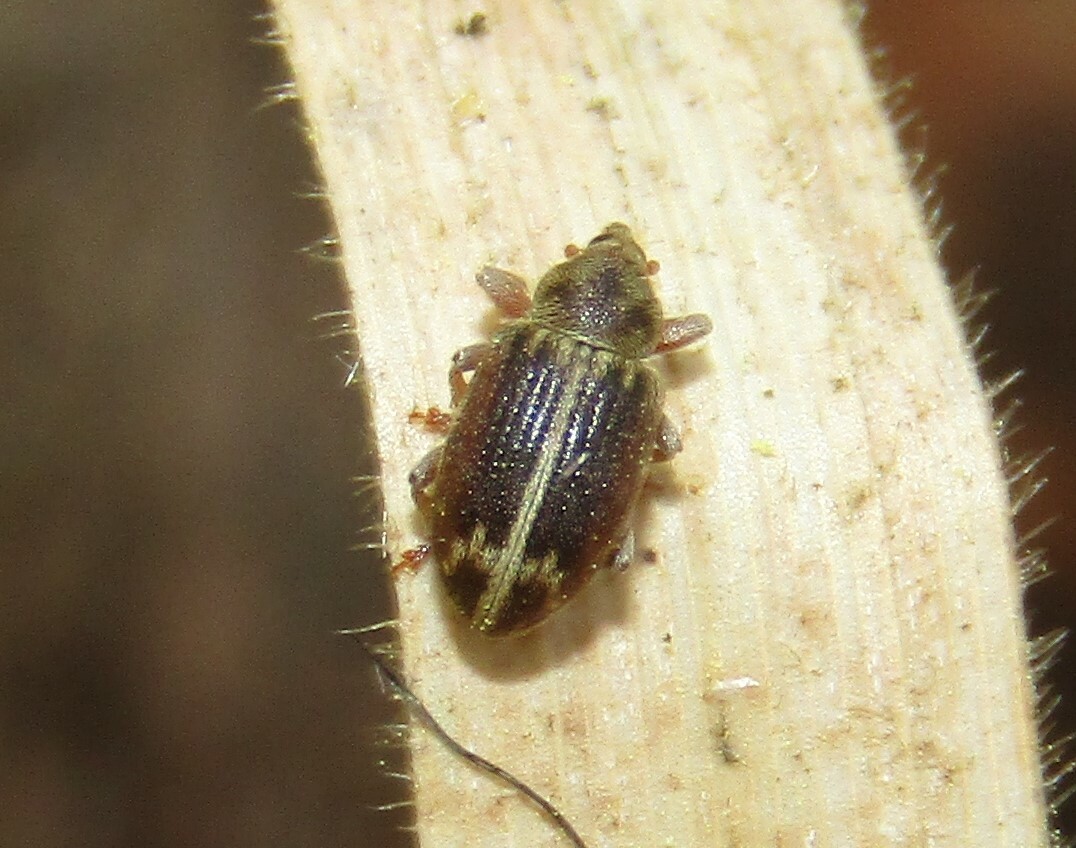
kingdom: Animalia
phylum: Arthropoda
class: Insecta
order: Coleoptera
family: Curculionidae
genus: Ellescus
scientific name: Ellescus scanicus
